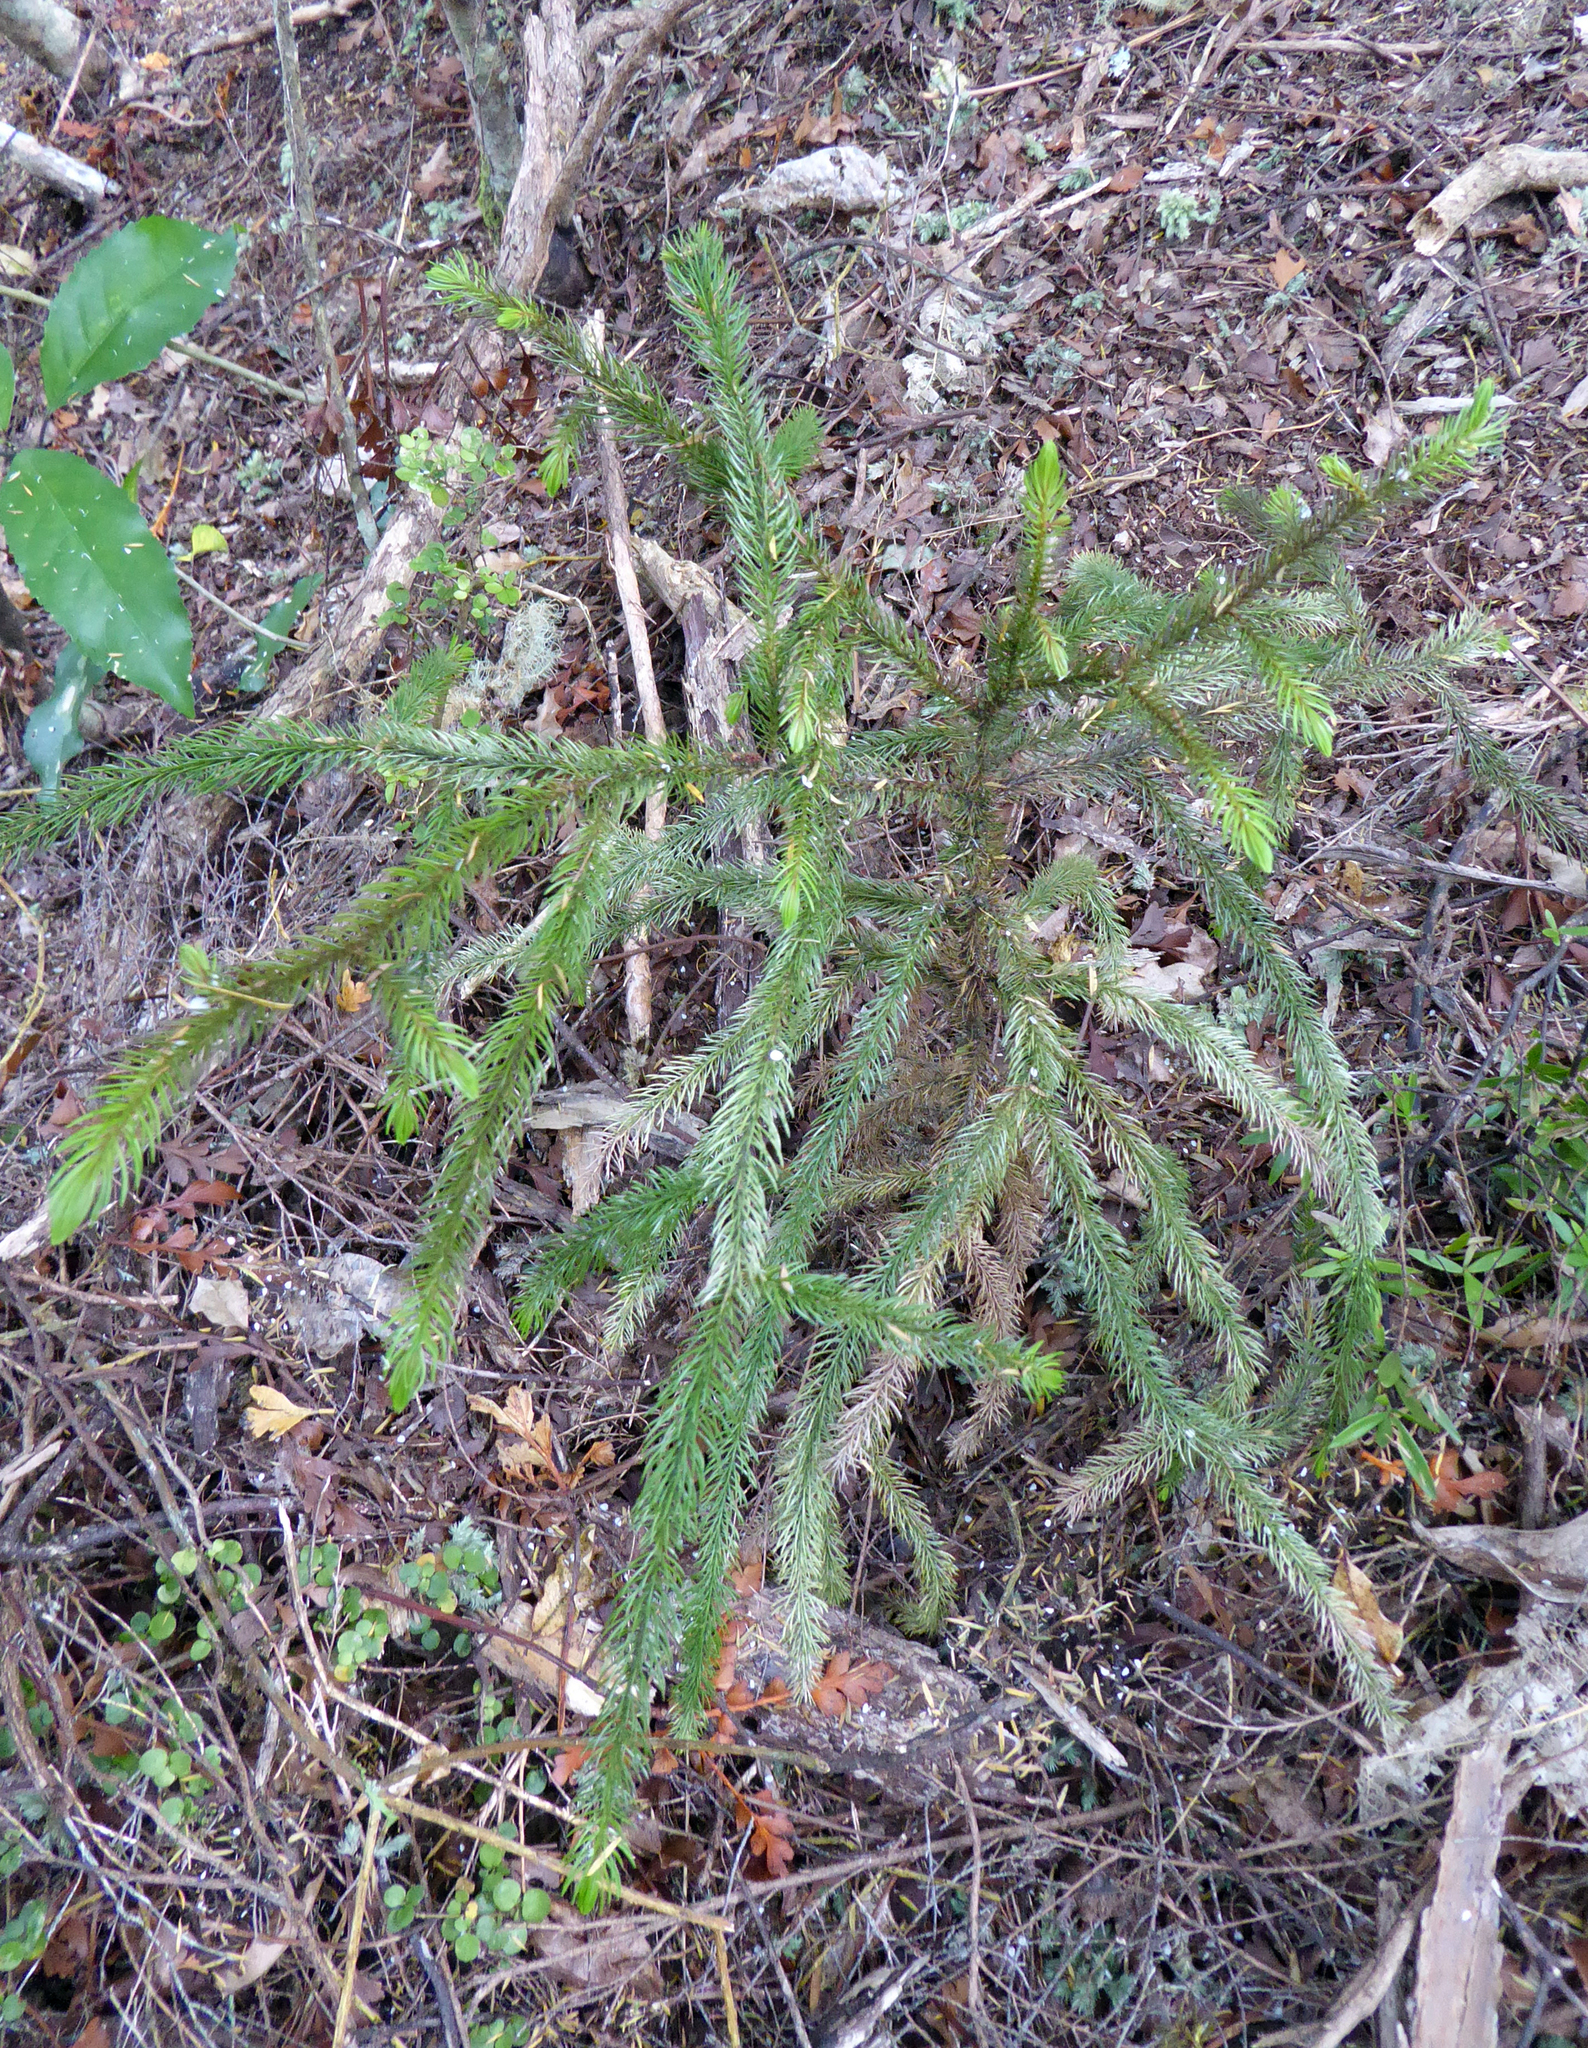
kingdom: Plantae
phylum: Tracheophyta
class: Pinopsida
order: Pinales
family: Podocarpaceae
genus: Dacrydium
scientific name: Dacrydium cupressinum
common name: Red pine
